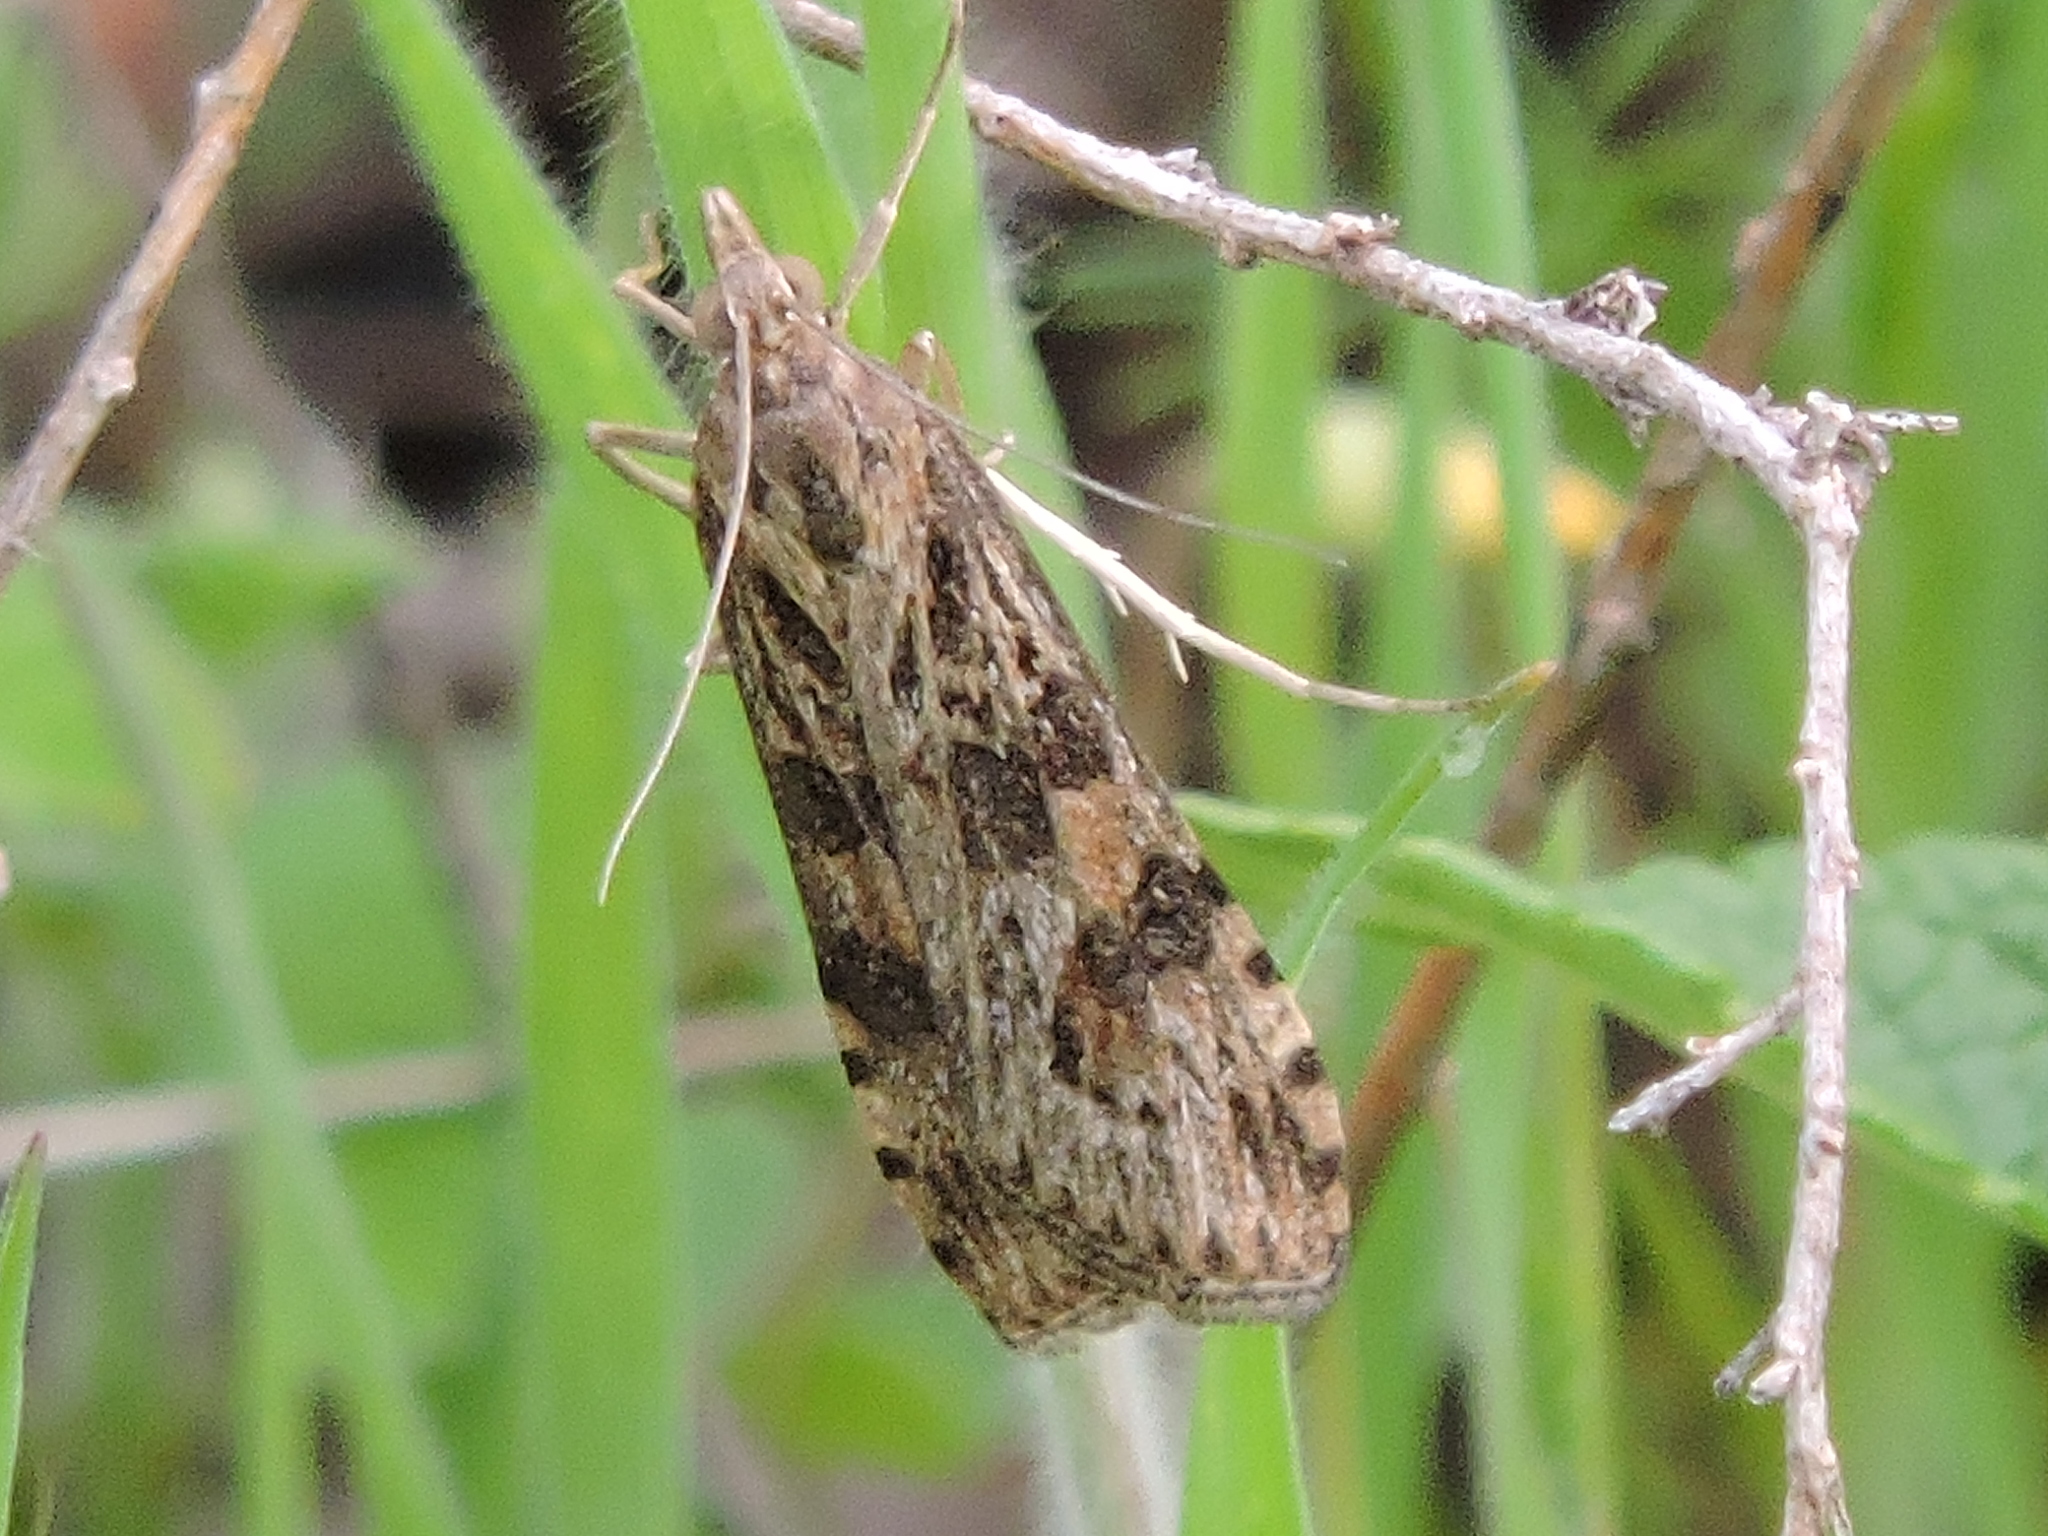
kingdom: Animalia
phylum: Arthropoda
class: Insecta
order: Lepidoptera
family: Crambidae
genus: Nomophila
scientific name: Nomophila nearctica
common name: American rush veneer
